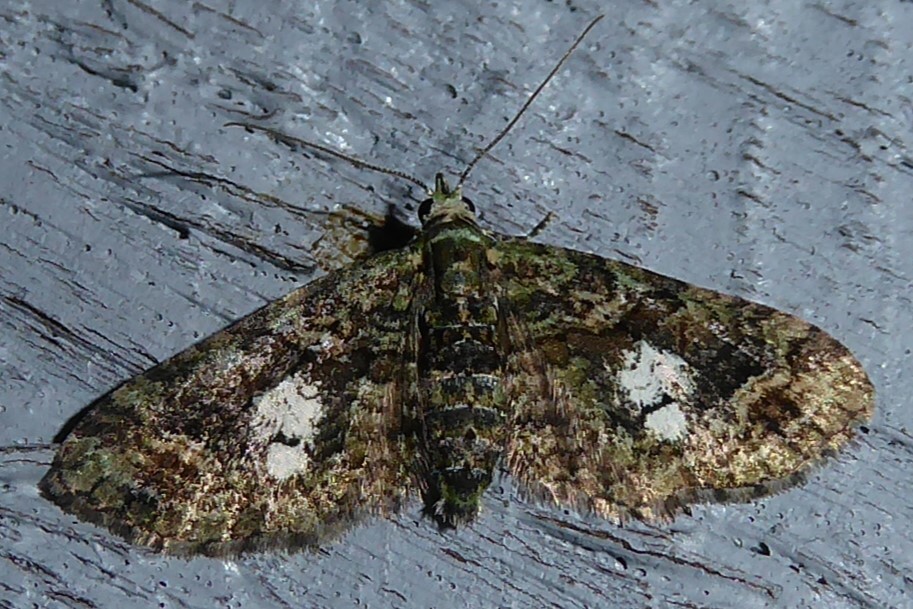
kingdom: Animalia
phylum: Arthropoda
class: Insecta
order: Lepidoptera
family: Geometridae
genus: Idaea
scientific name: Idaea mutanda
